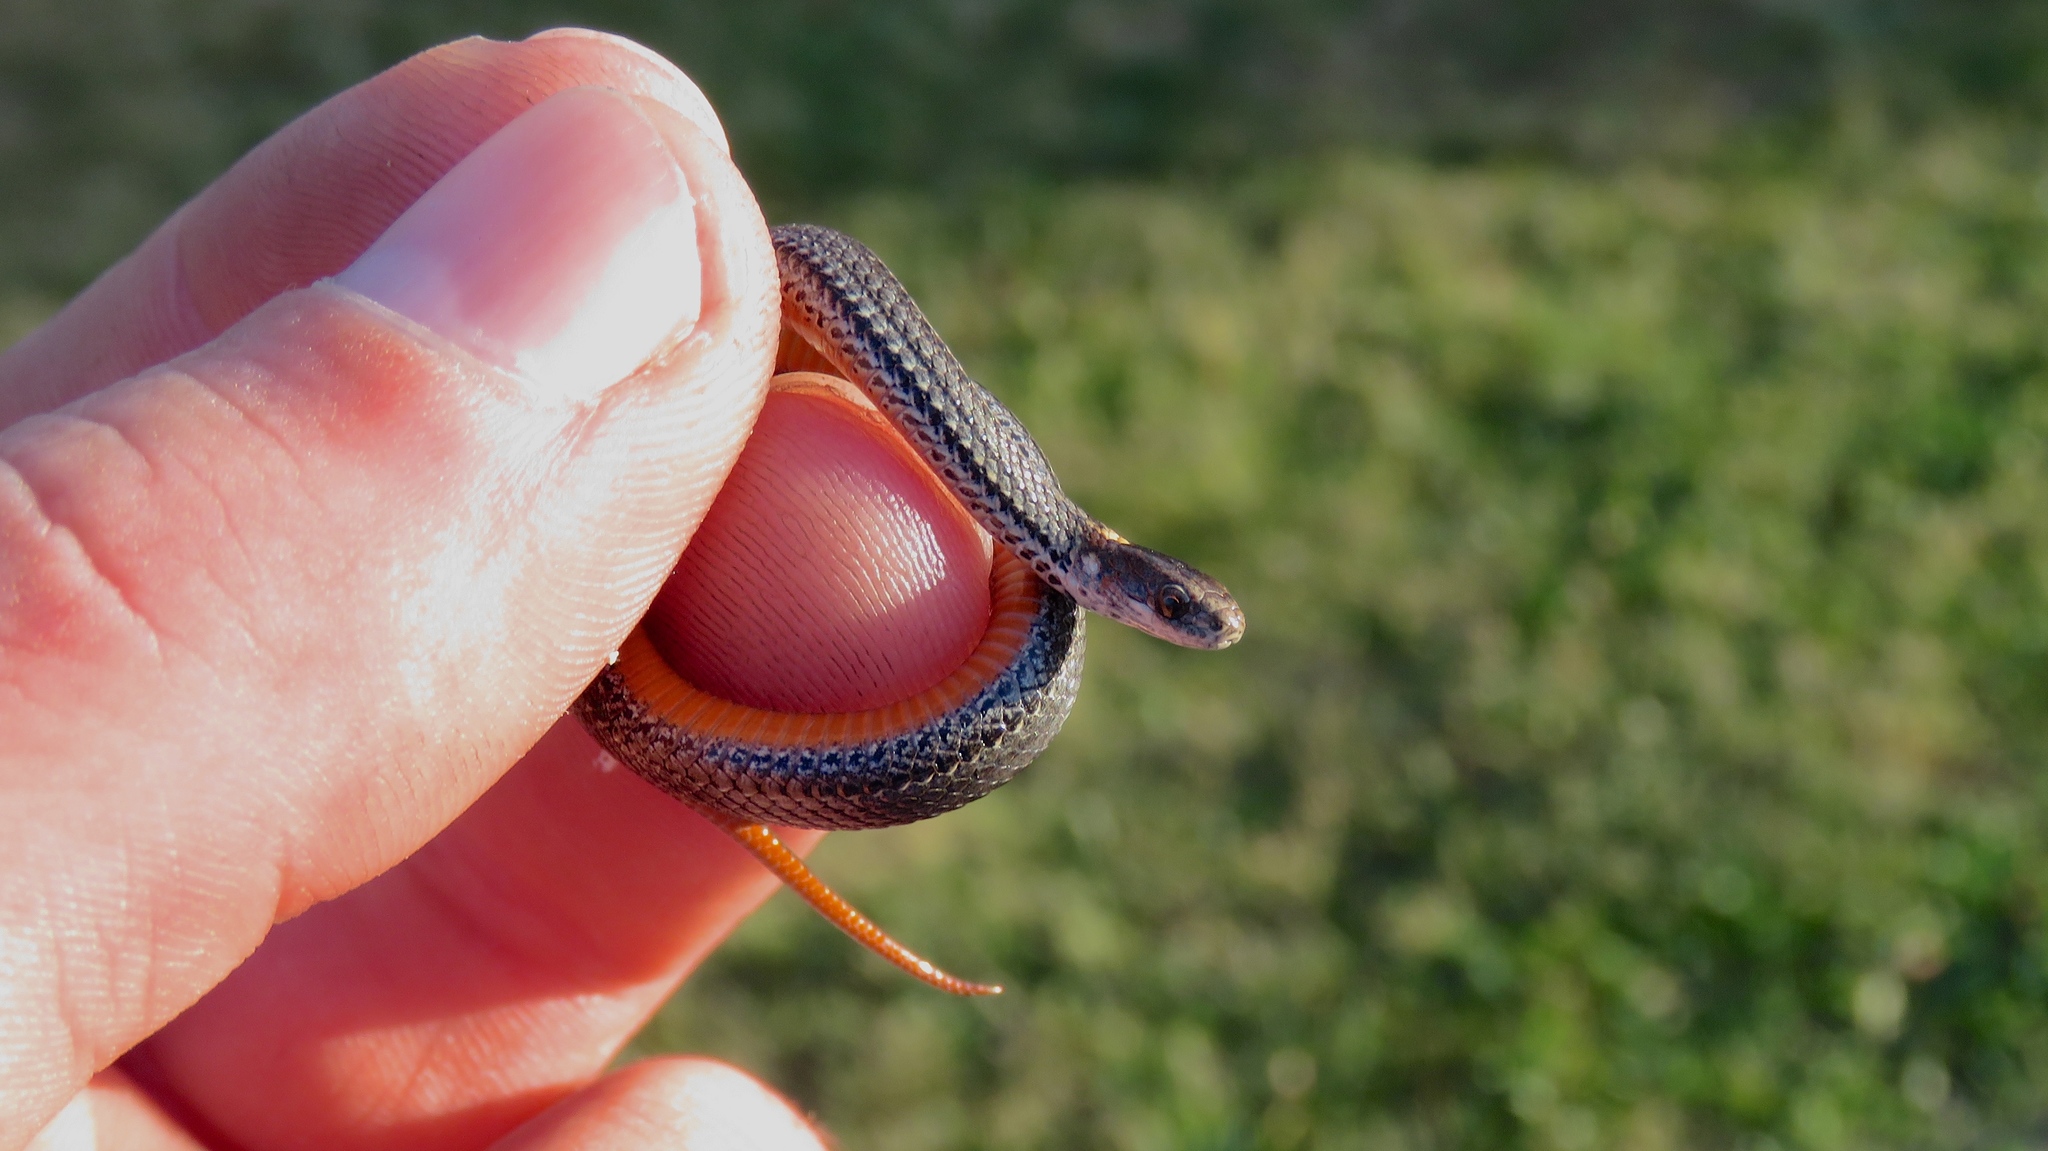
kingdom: Animalia
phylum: Chordata
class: Squamata
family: Colubridae
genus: Storeria
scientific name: Storeria occipitomaculata
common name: Redbelly snake
